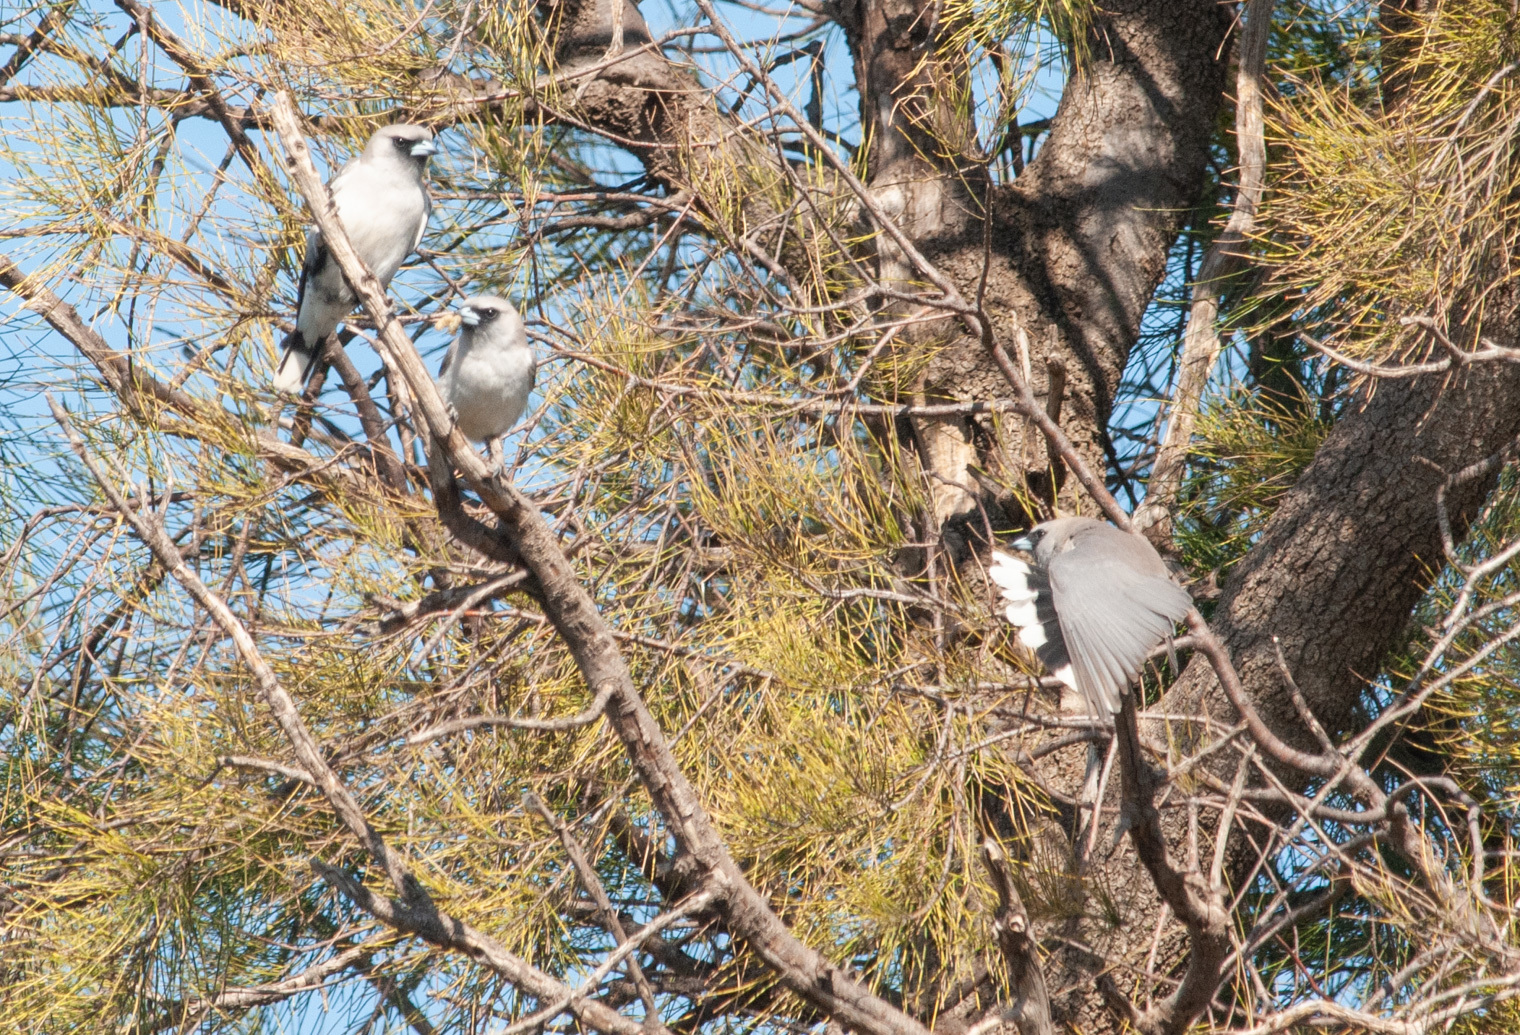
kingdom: Animalia
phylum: Chordata
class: Aves
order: Passeriformes
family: Artamidae
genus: Artamus
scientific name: Artamus cinereus
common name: Black-faced woodswallow
